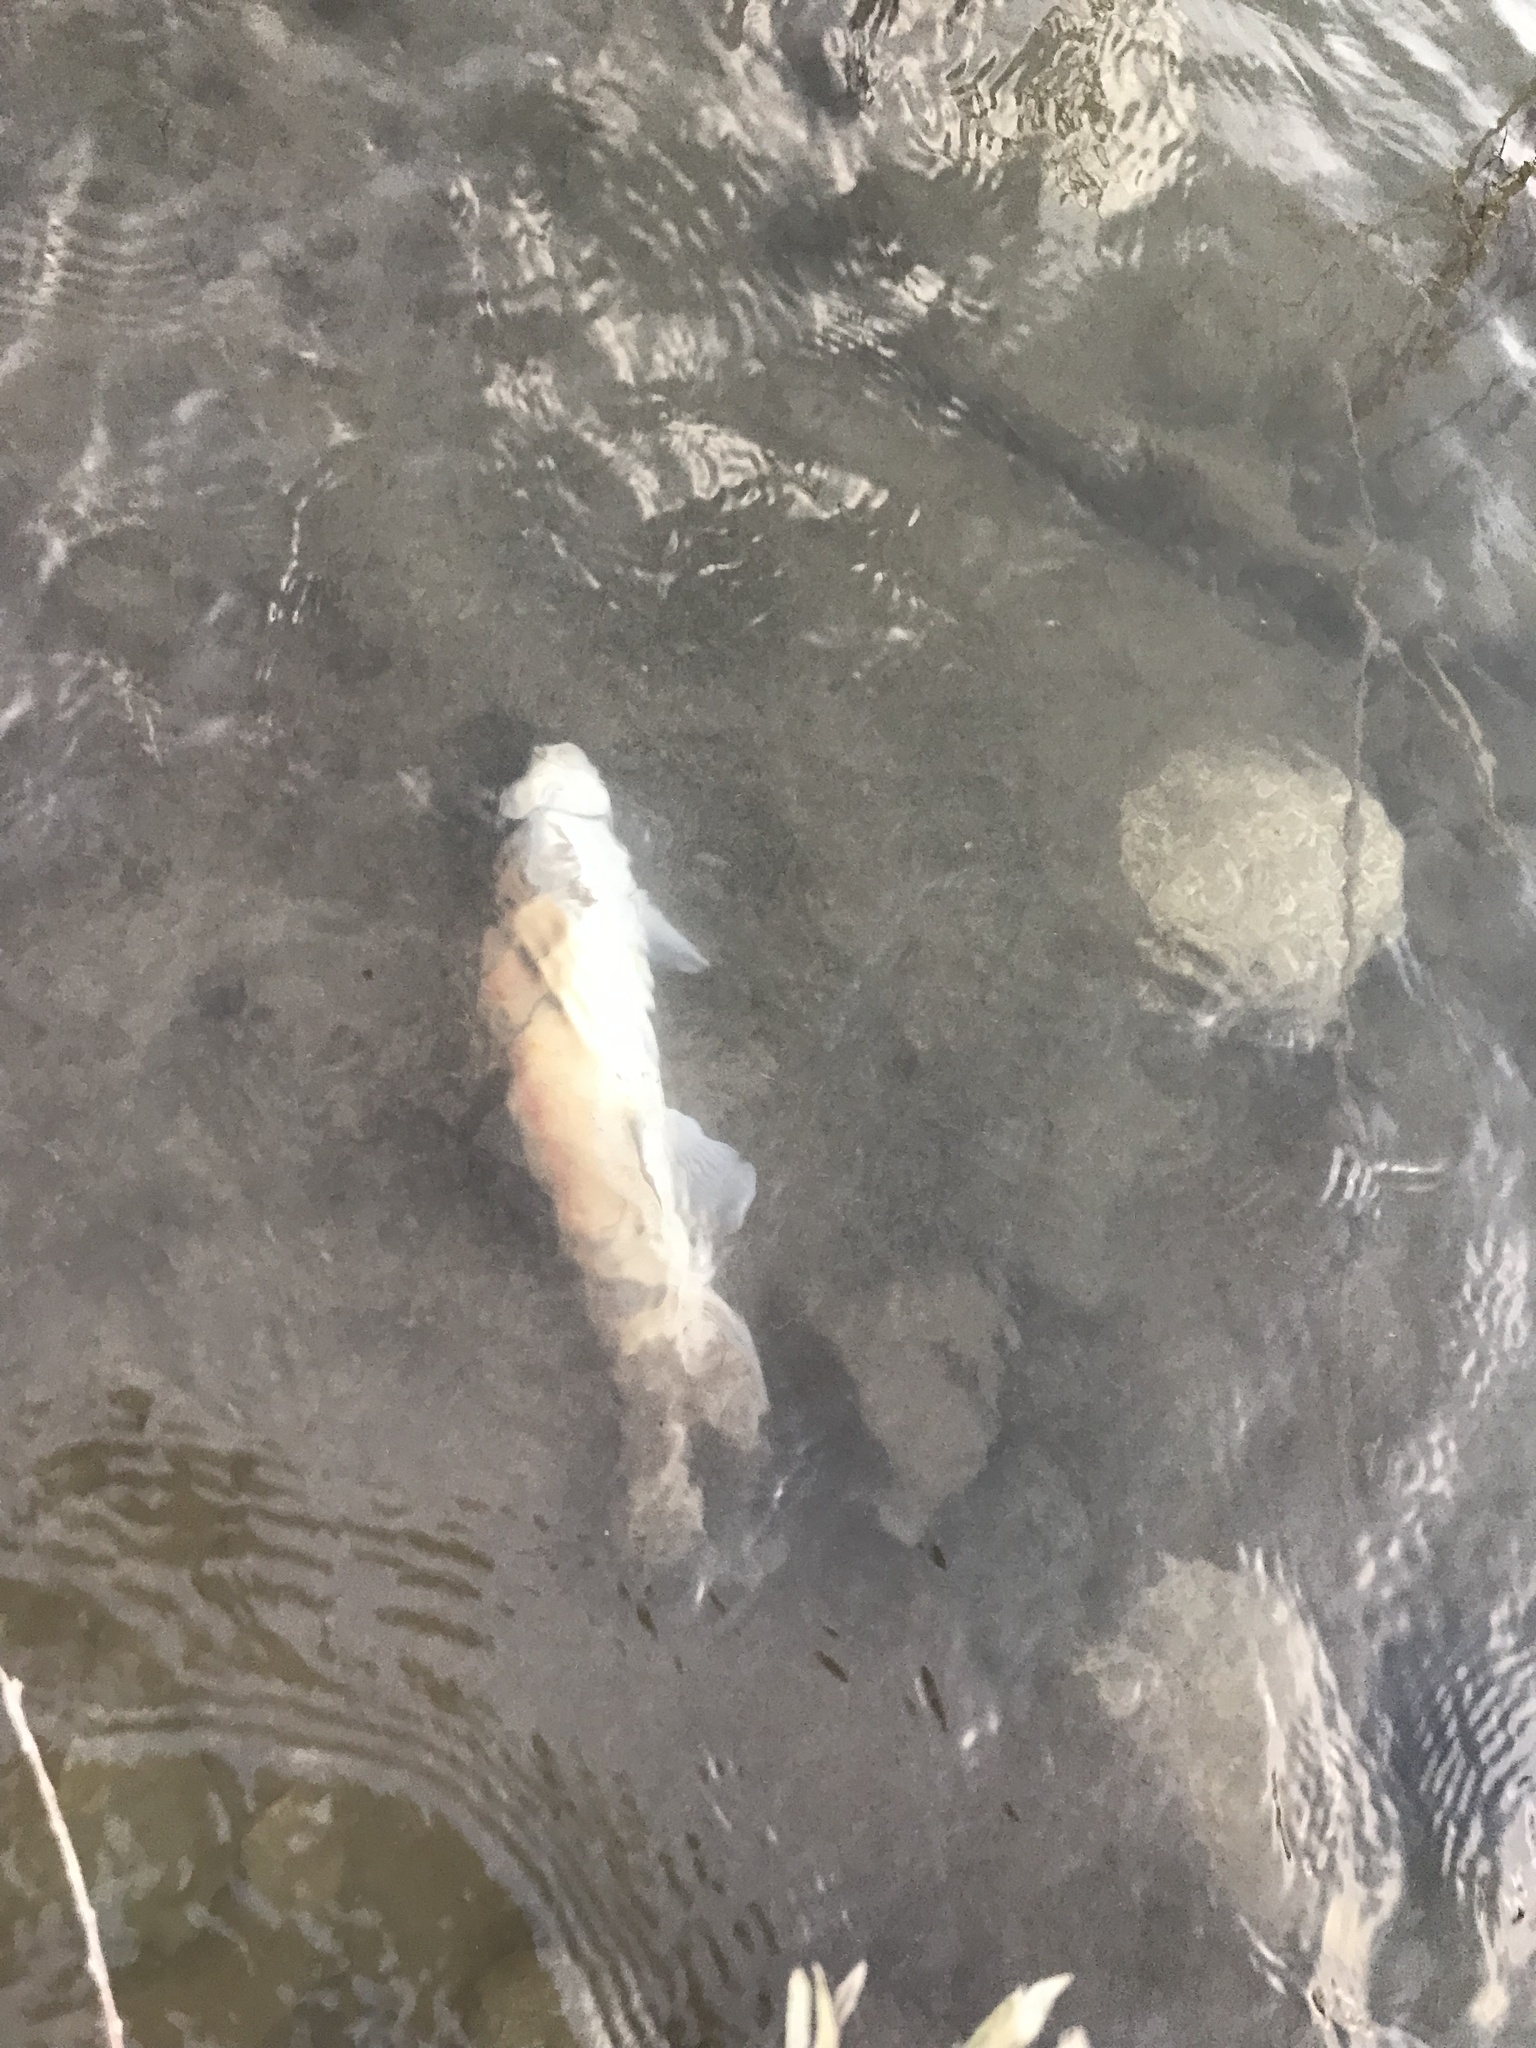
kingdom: Animalia
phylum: Chordata
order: Cypriniformes
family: Catostomidae
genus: Catostomus
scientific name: Catostomus columbianus
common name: Bridgelip sucker
